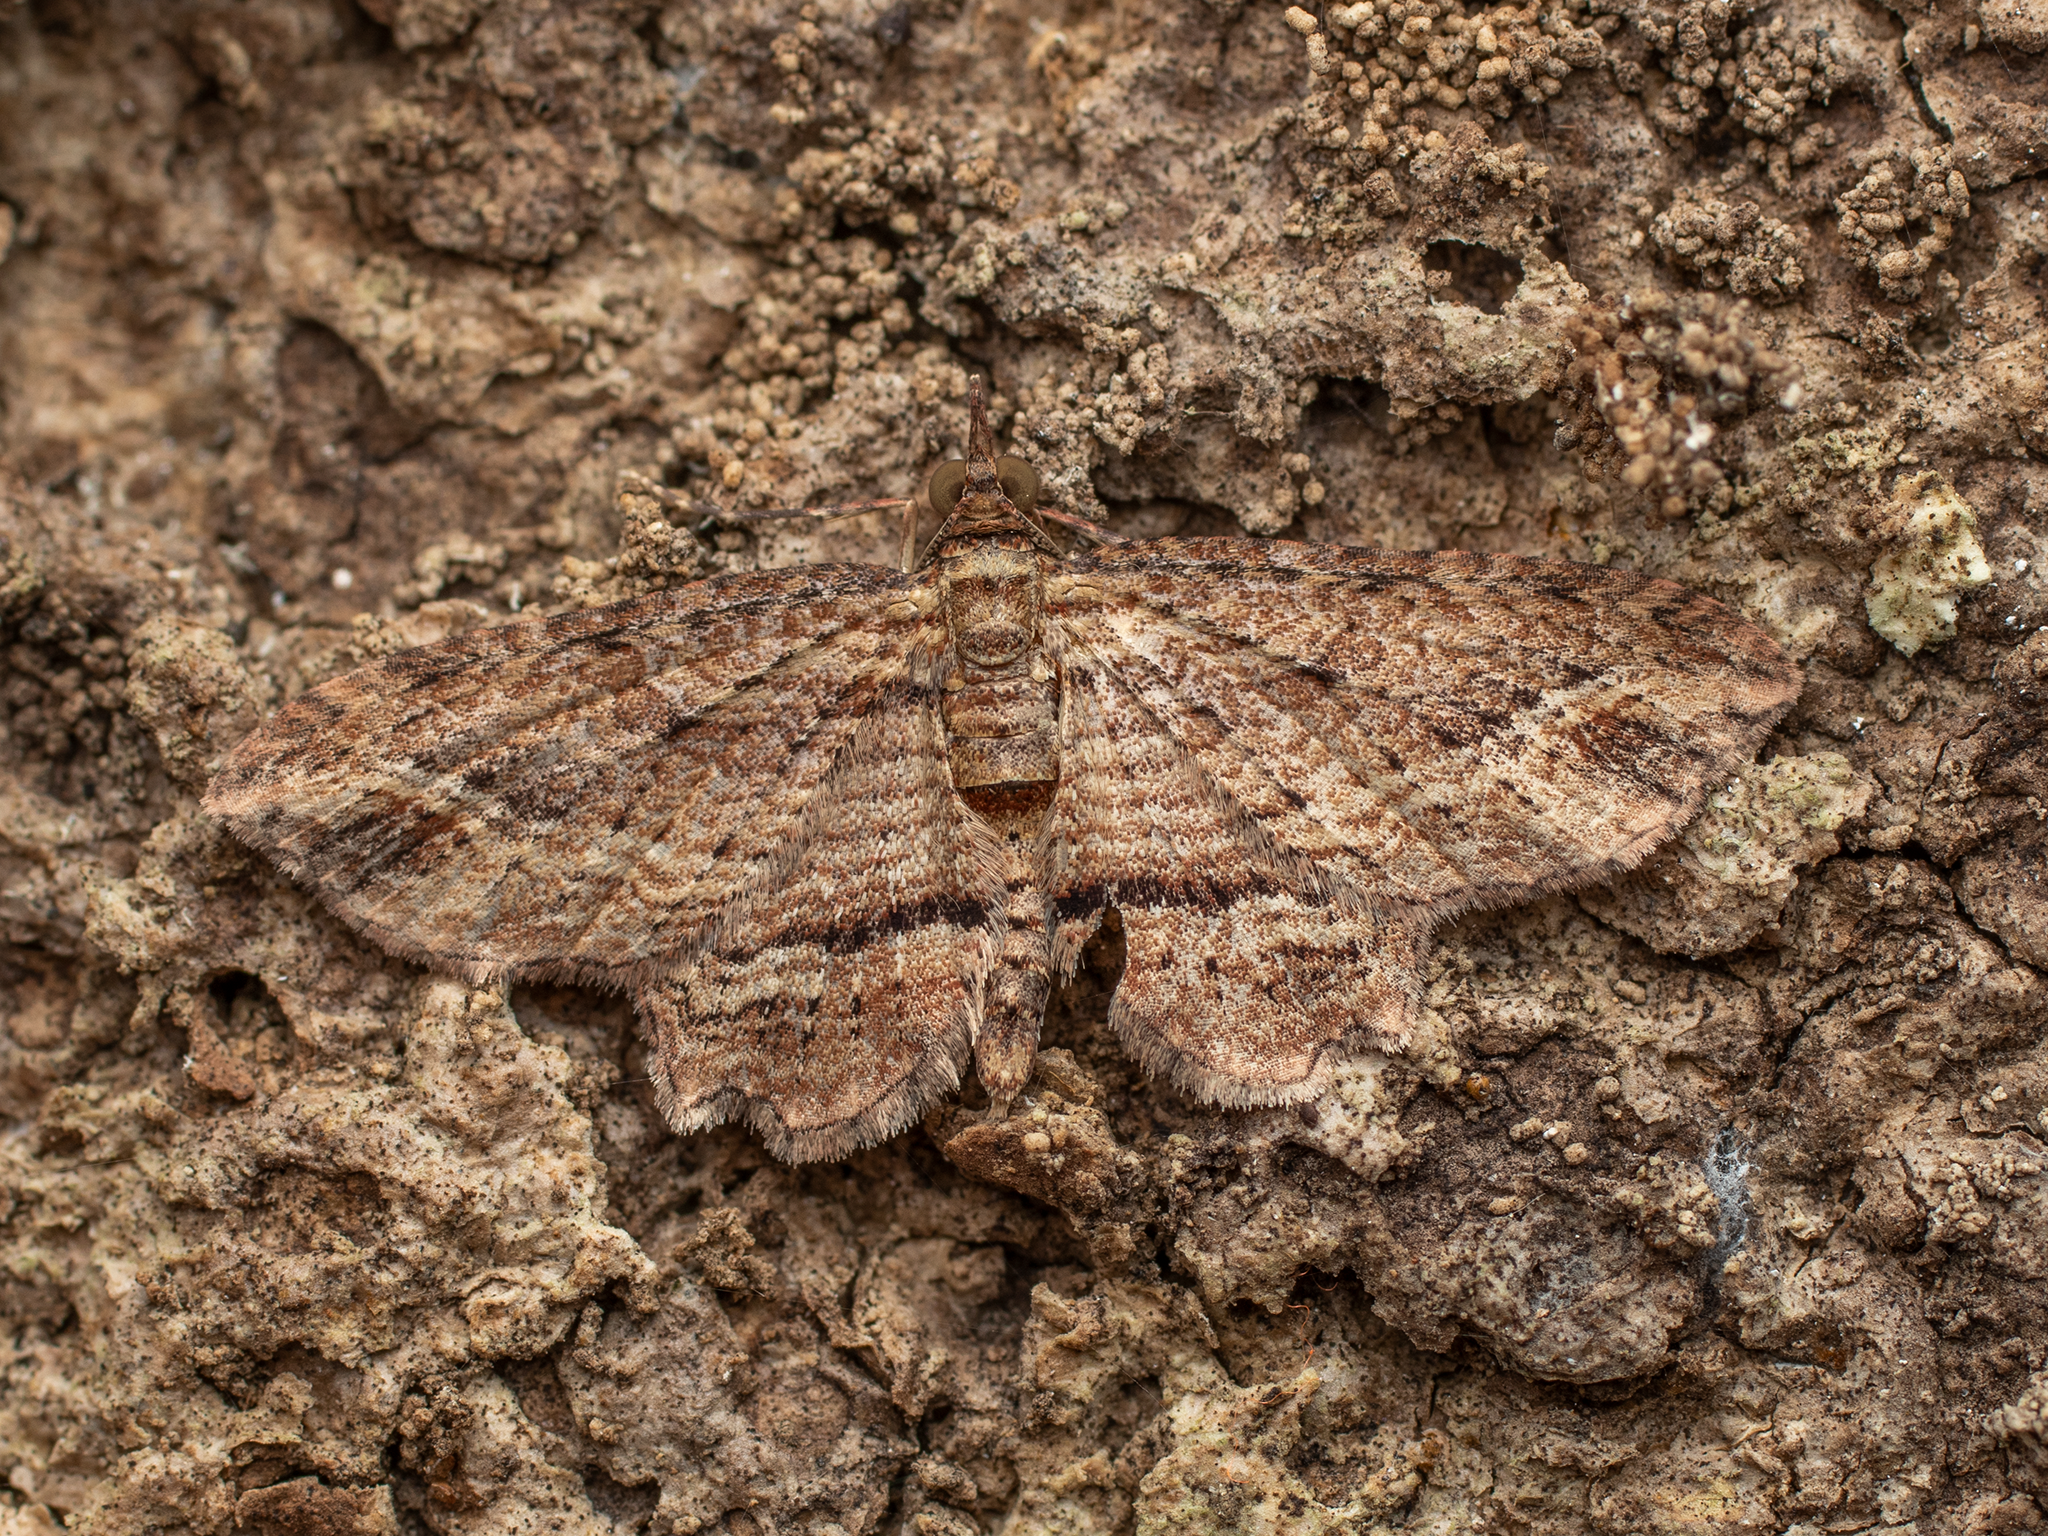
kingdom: Animalia
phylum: Arthropoda
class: Insecta
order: Lepidoptera
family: Geometridae
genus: Chloroclystis
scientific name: Chloroclystis filata
